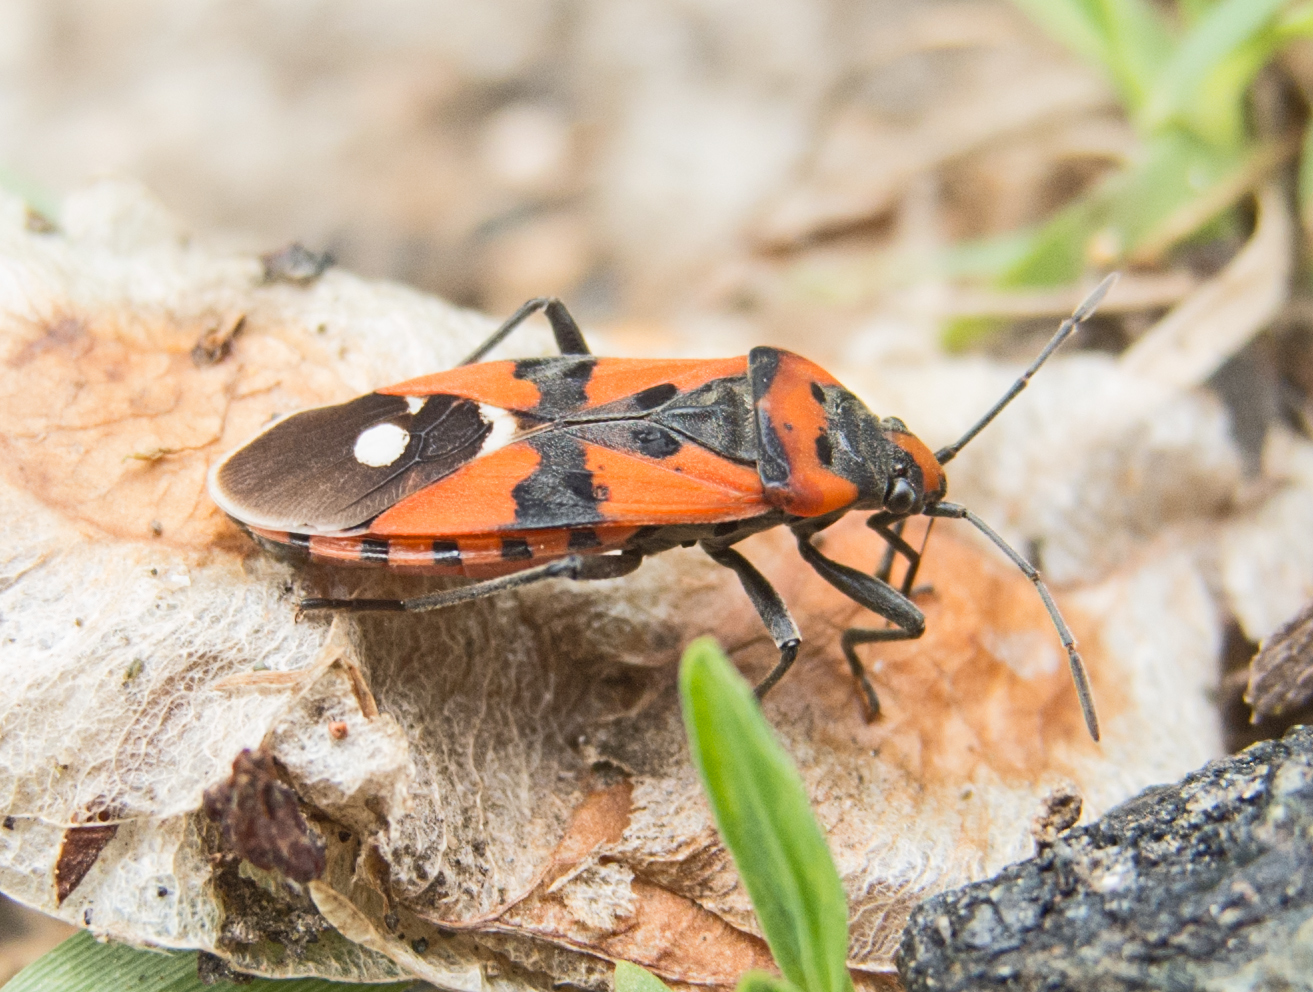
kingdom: Animalia
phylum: Arthropoda
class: Insecta
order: Hemiptera
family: Lygaeidae
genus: Lygaeus
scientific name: Lygaeus equestris
